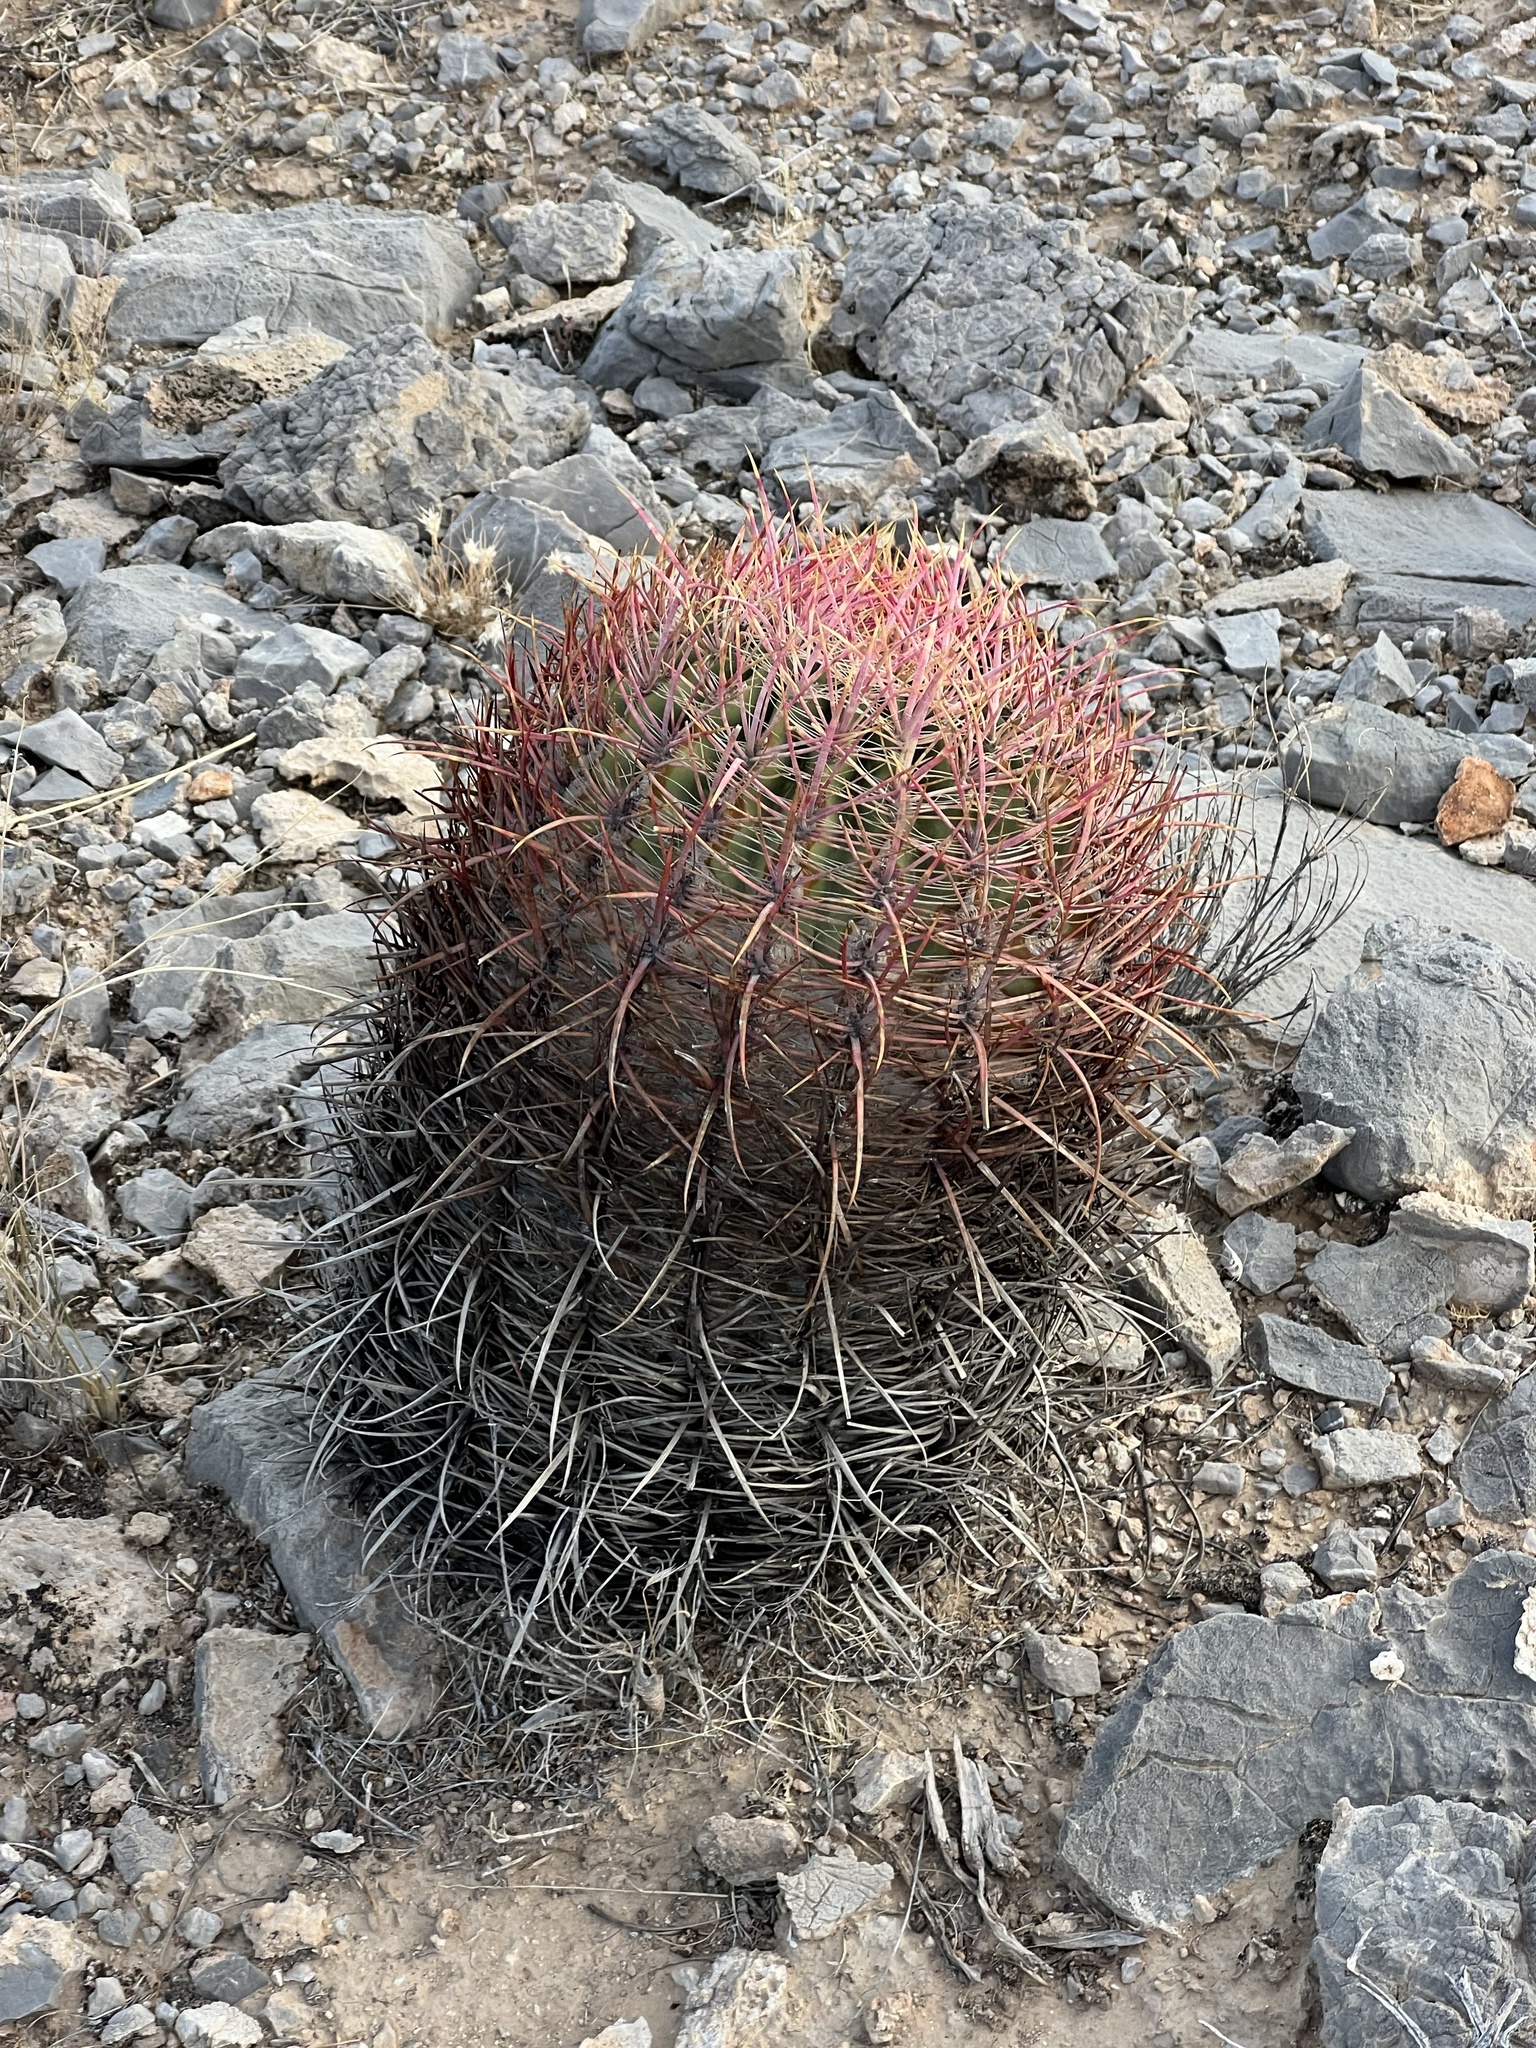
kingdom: Plantae
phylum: Tracheophyta
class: Magnoliopsida
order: Caryophyllales
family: Cactaceae
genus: Ferocactus
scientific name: Ferocactus cylindraceus
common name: California barrel cactus
